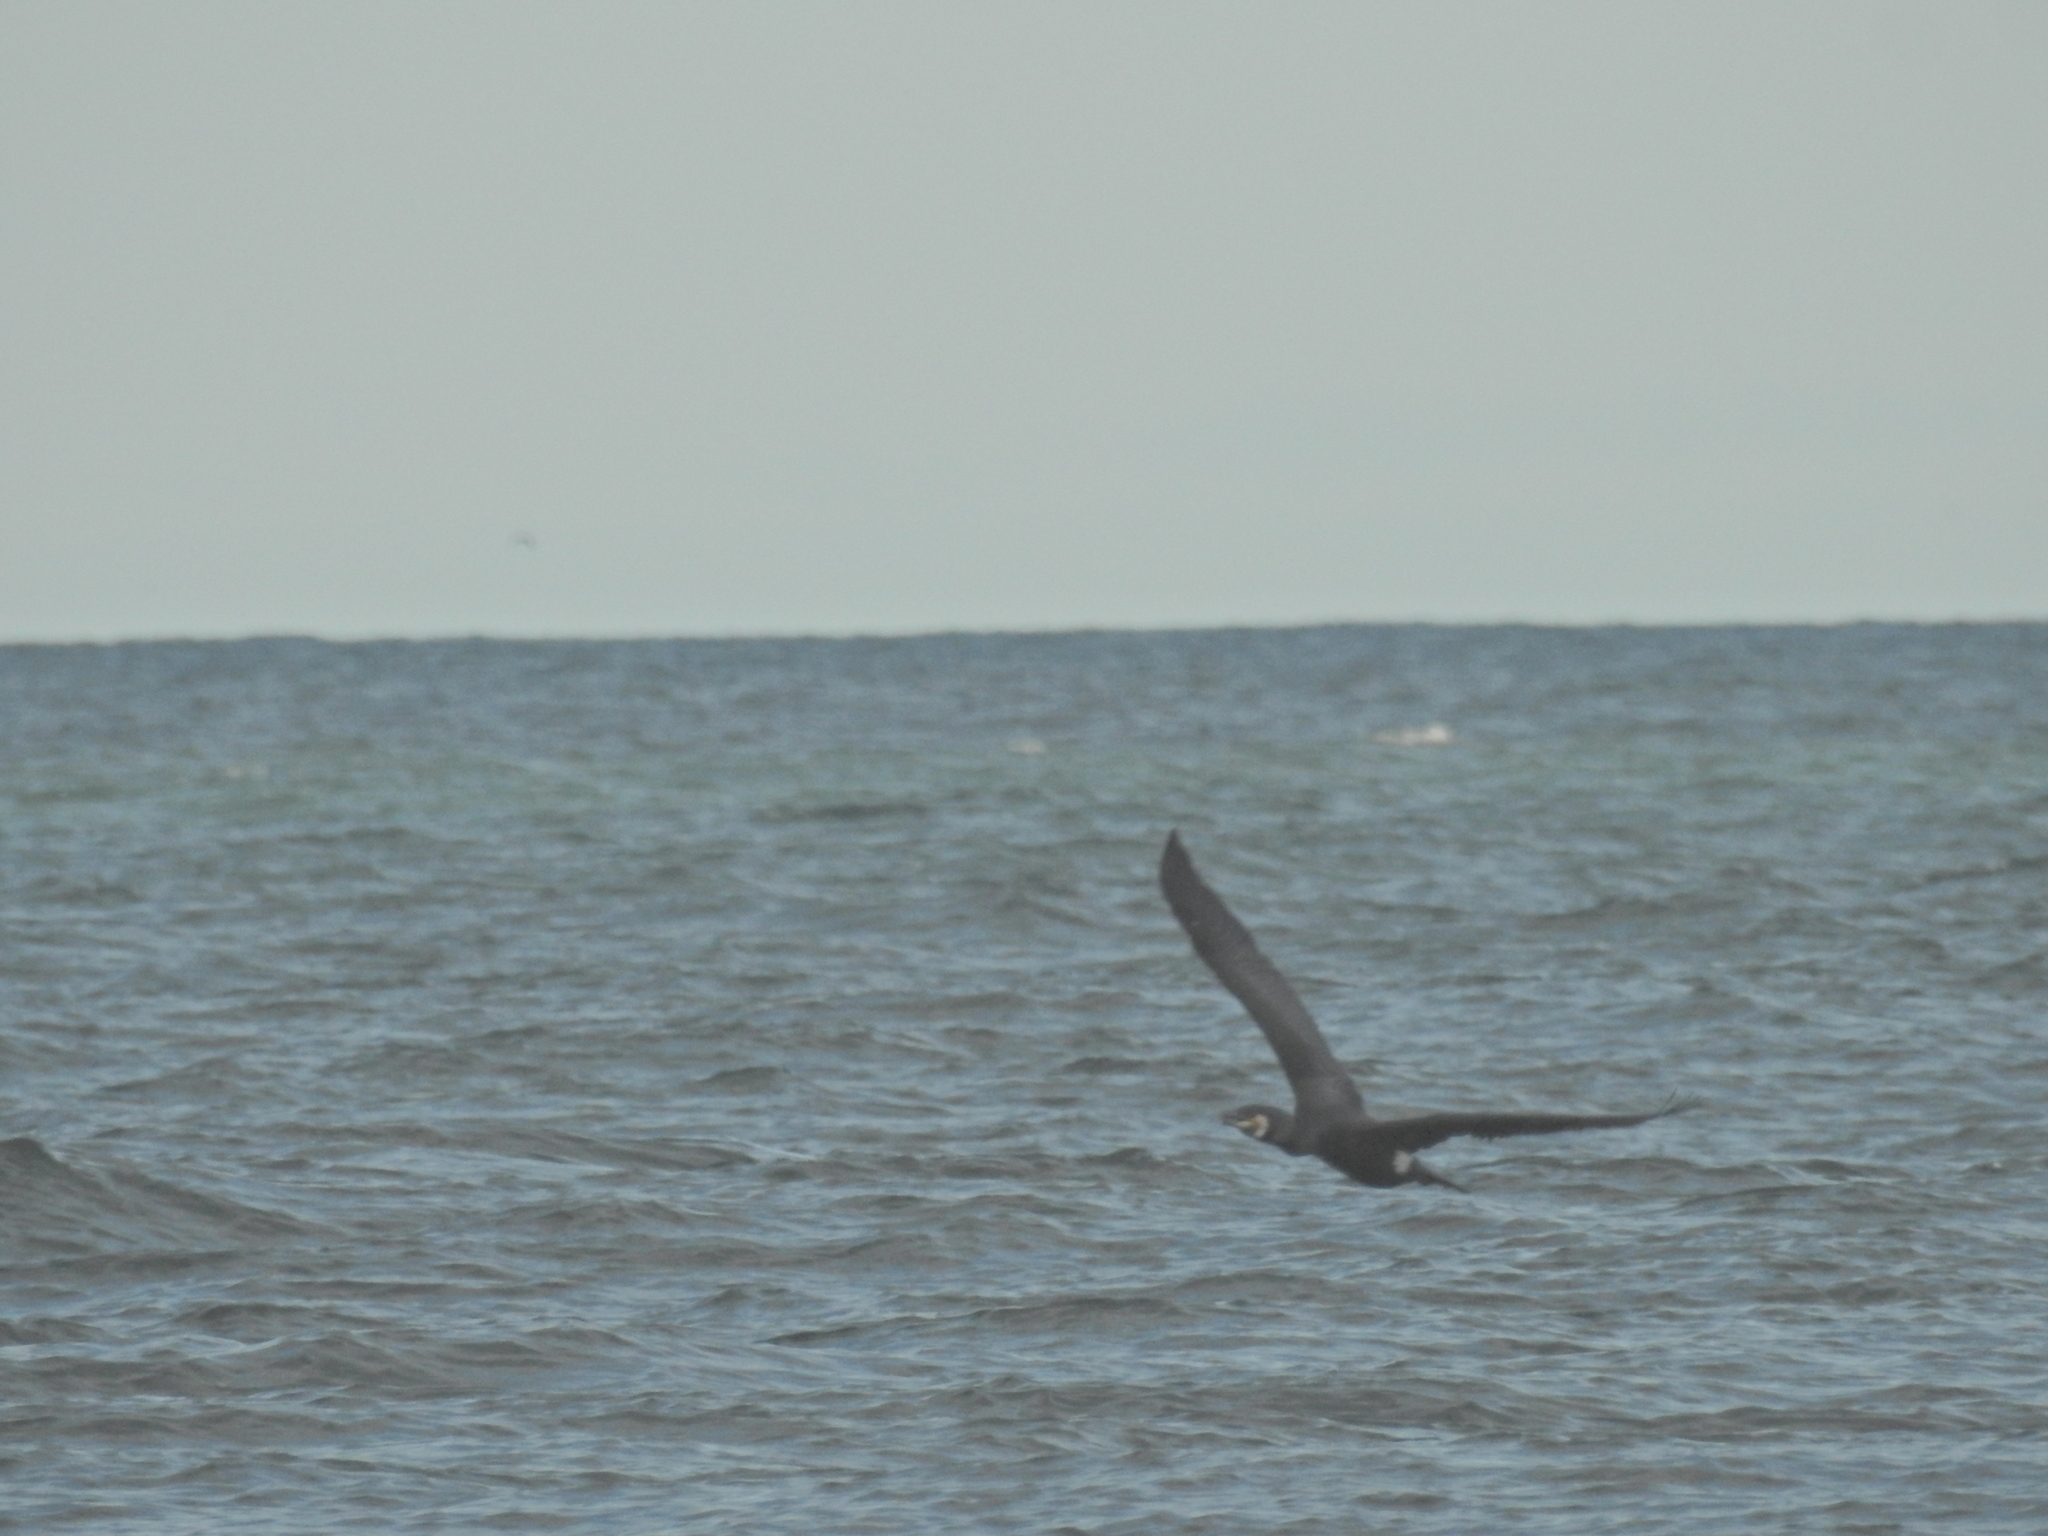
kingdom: Animalia
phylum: Chordata
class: Aves
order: Suliformes
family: Phalacrocoracidae
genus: Phalacrocorax
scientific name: Phalacrocorax carbo
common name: Great cormorant
